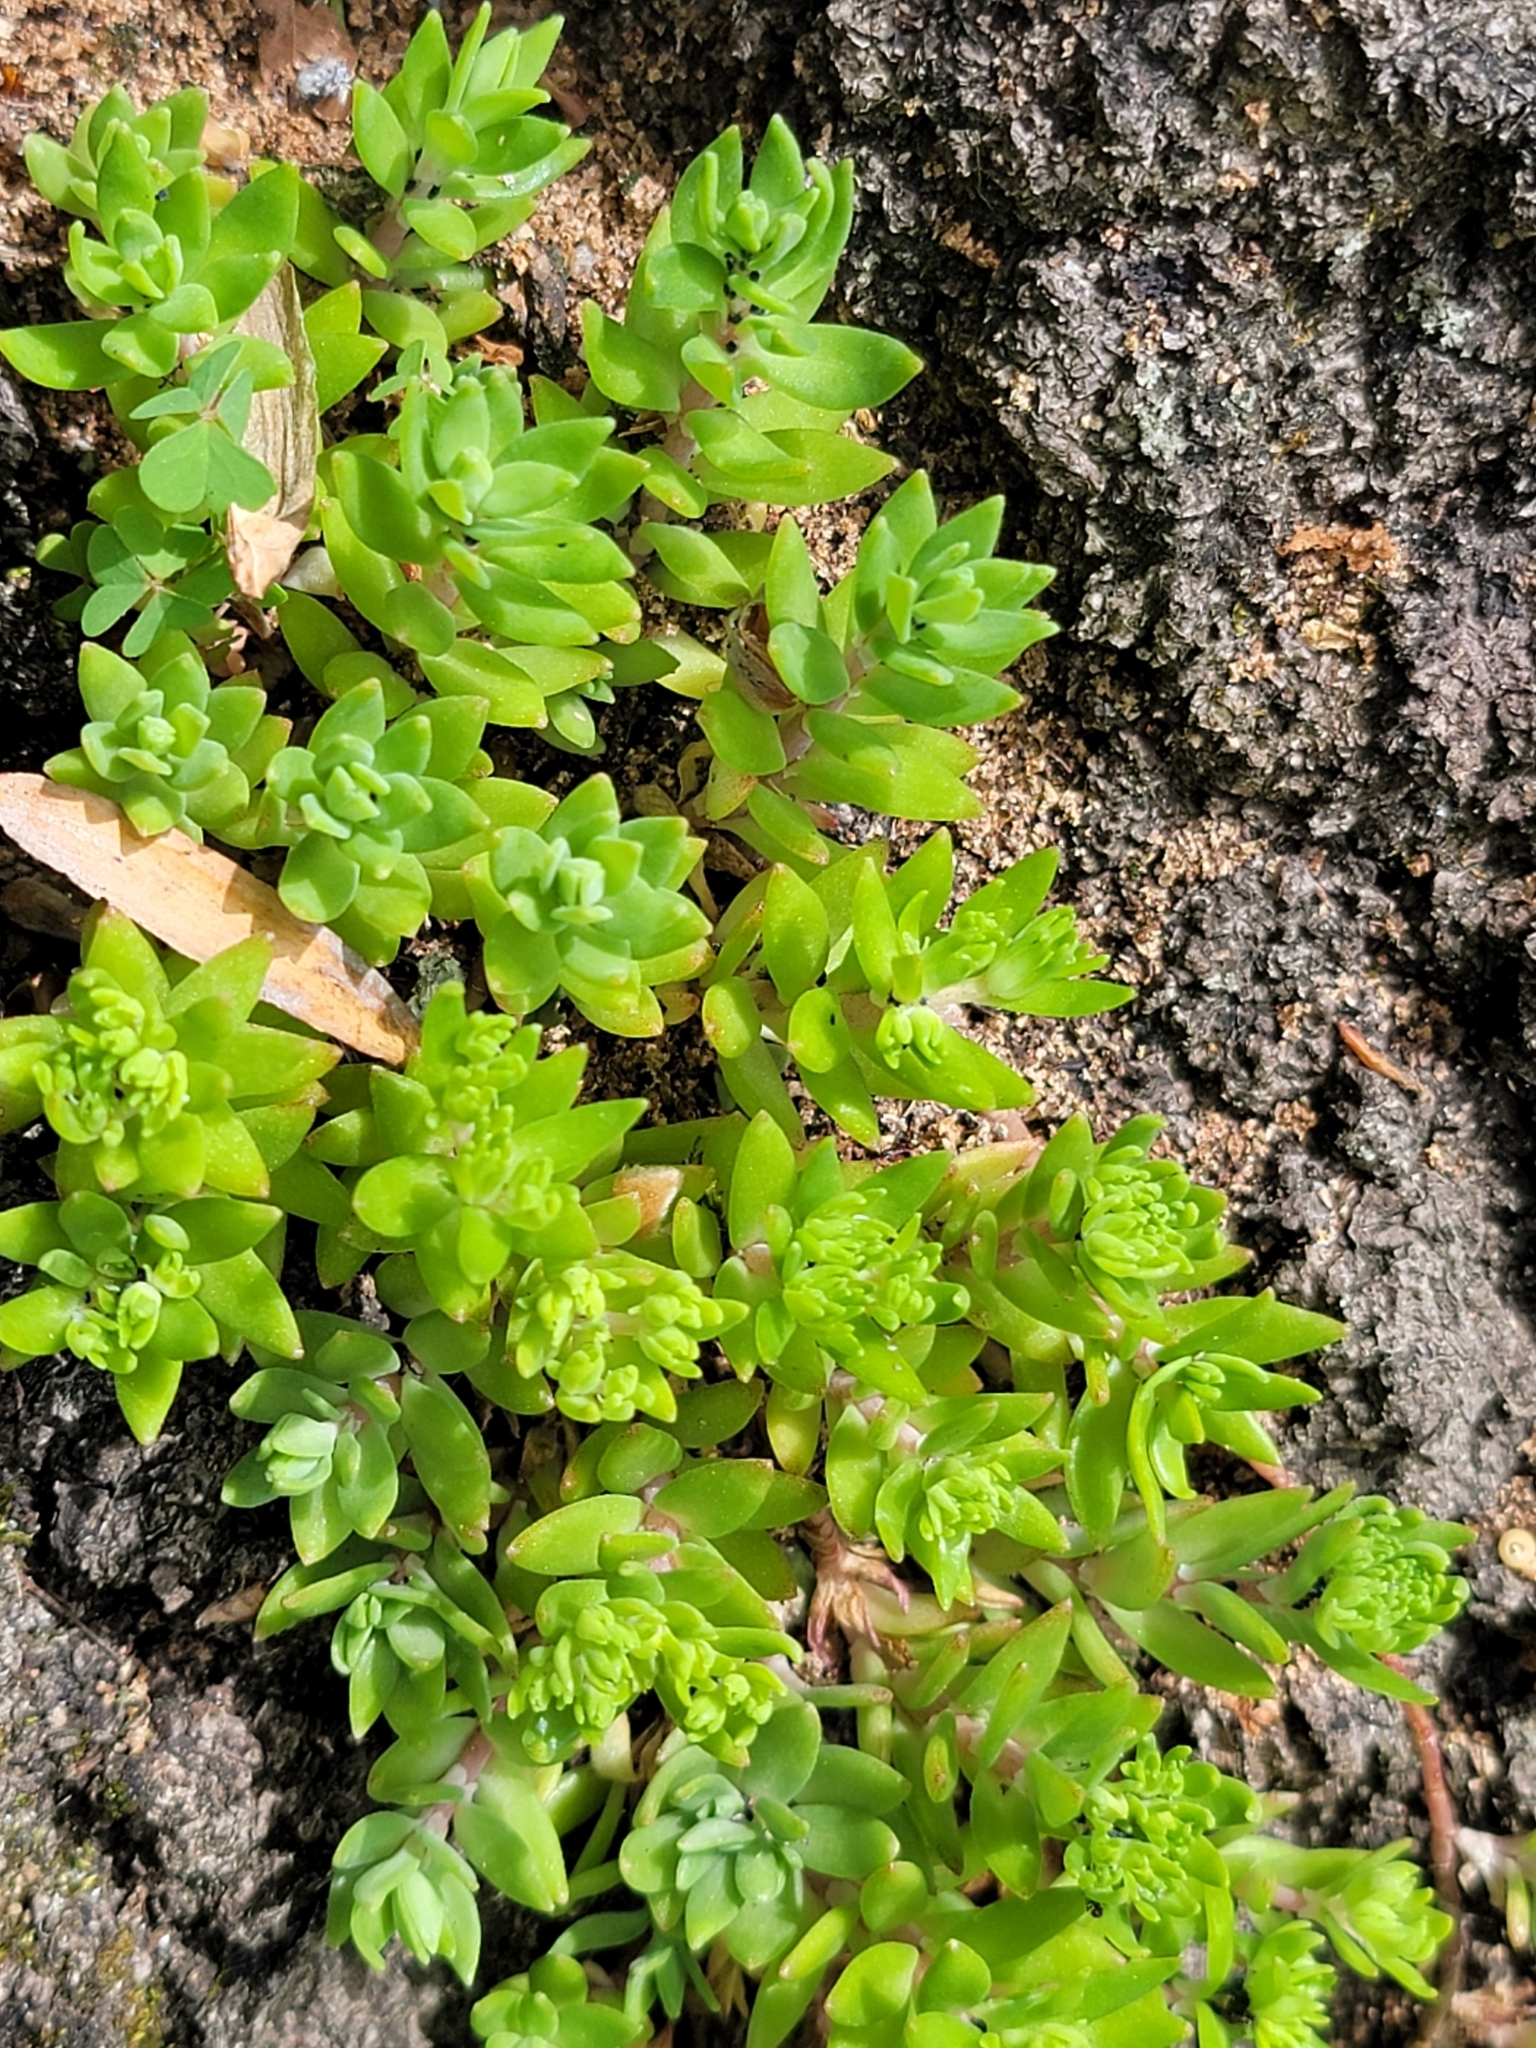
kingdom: Plantae
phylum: Tracheophyta
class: Magnoliopsida
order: Saxifragales
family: Crassulaceae
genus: Sedum
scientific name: Sedum sarmentosum
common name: Stringy stonecrop
